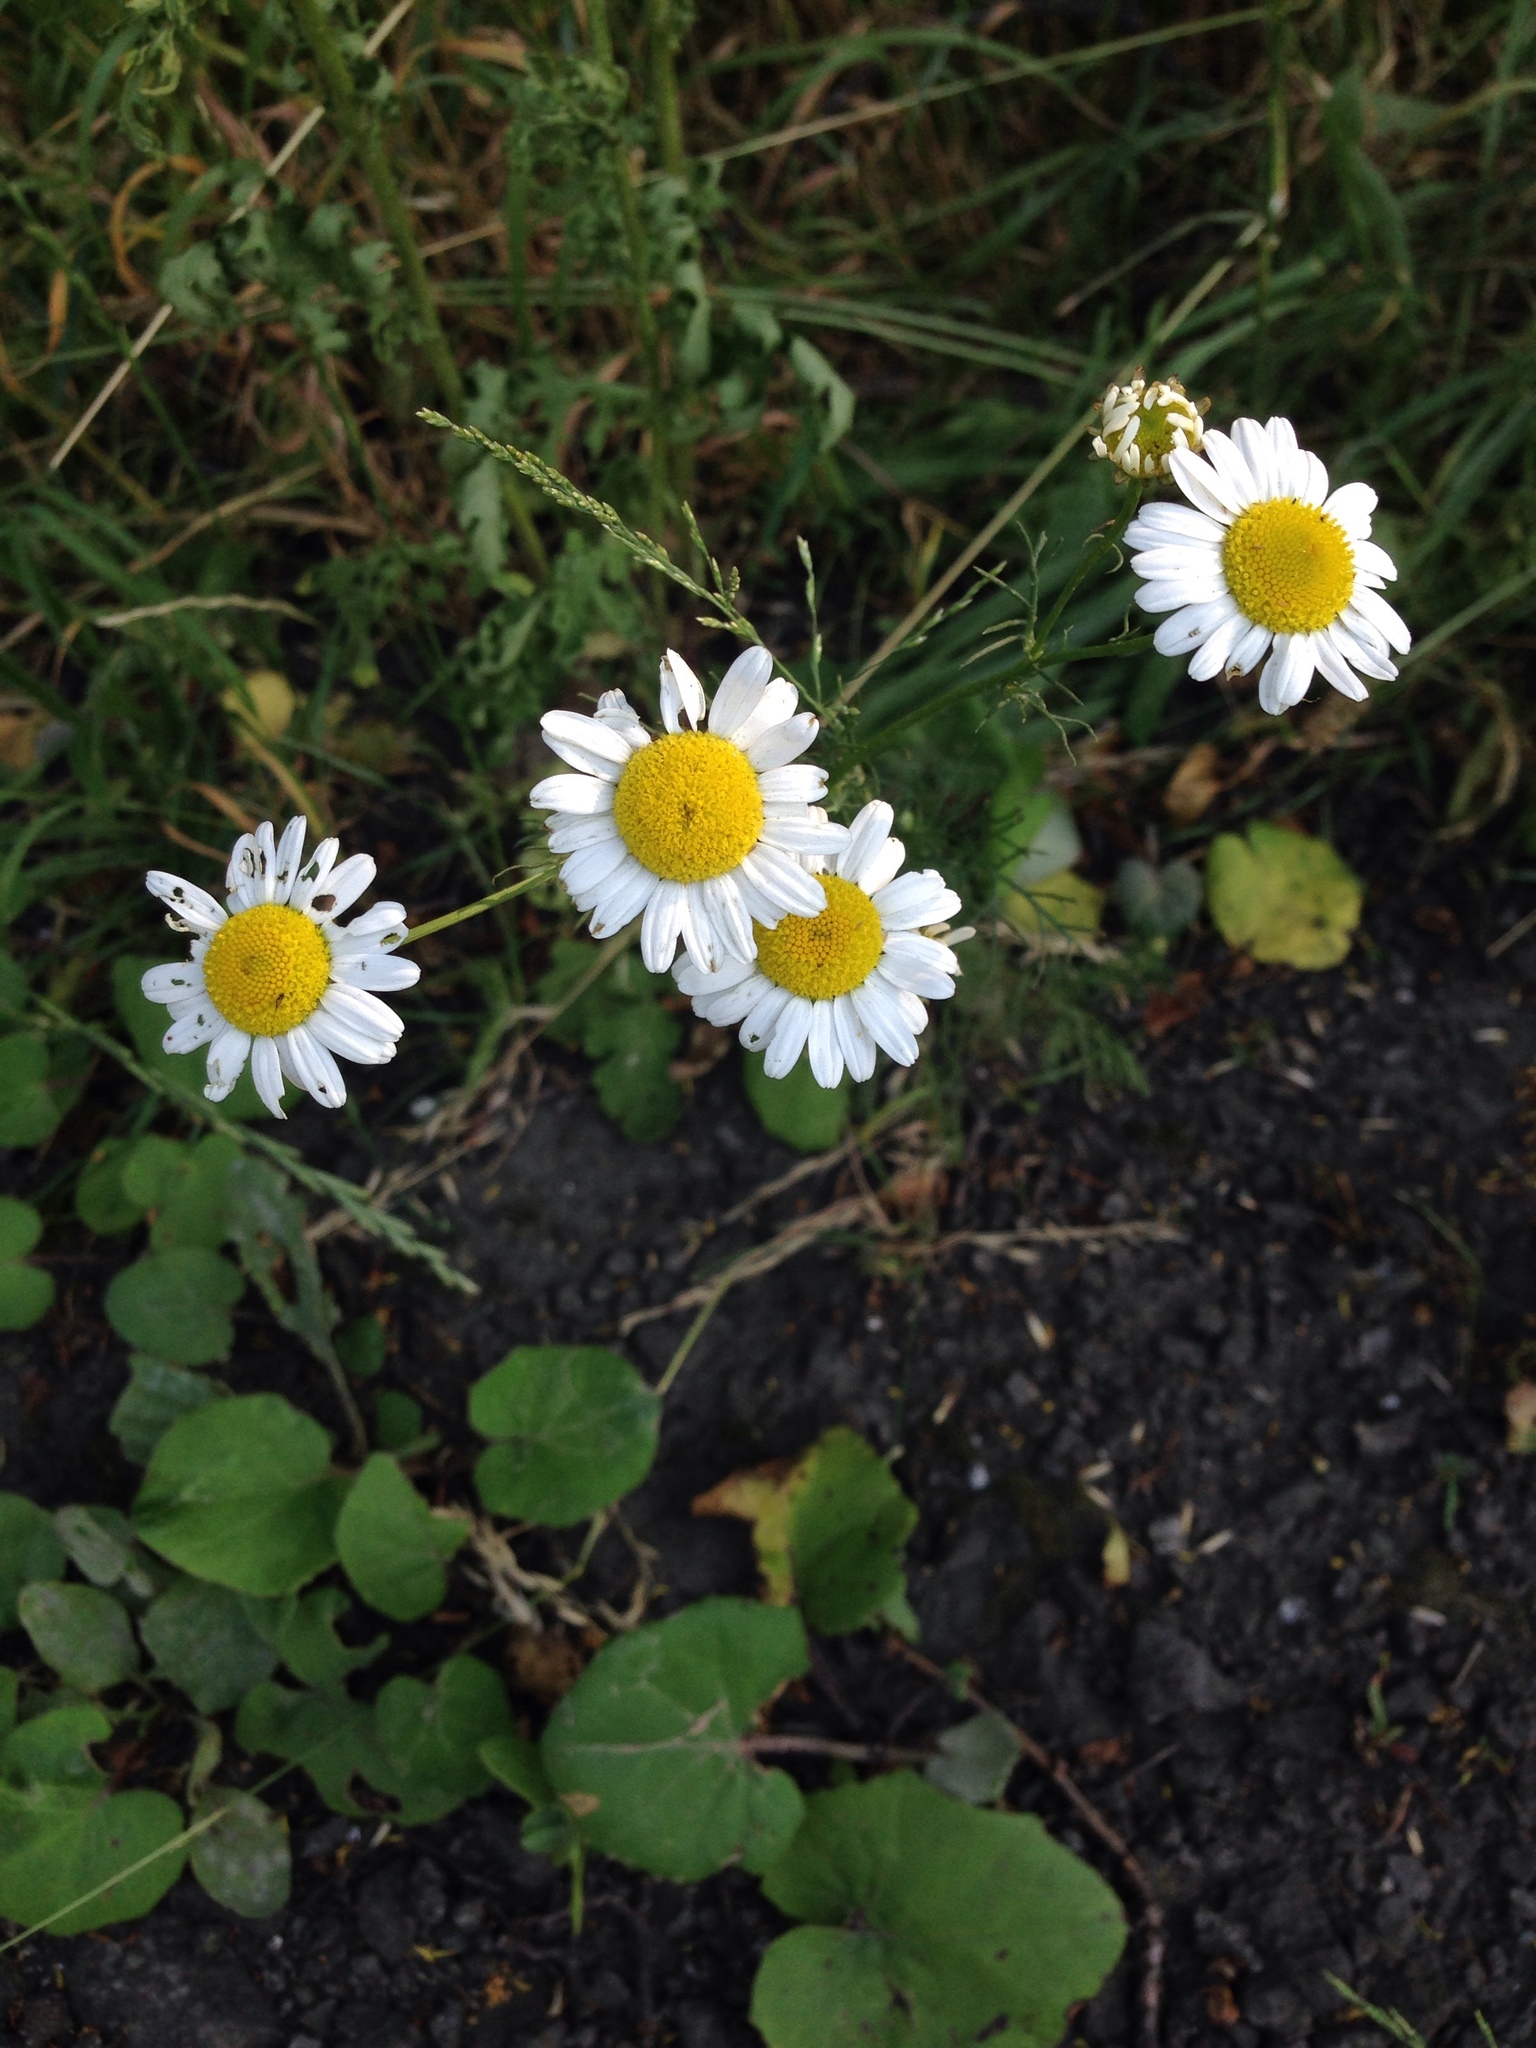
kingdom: Plantae
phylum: Tracheophyta
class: Magnoliopsida
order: Asterales
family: Asteraceae
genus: Matricaria
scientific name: Matricaria chamomilla
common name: Scented mayweed
